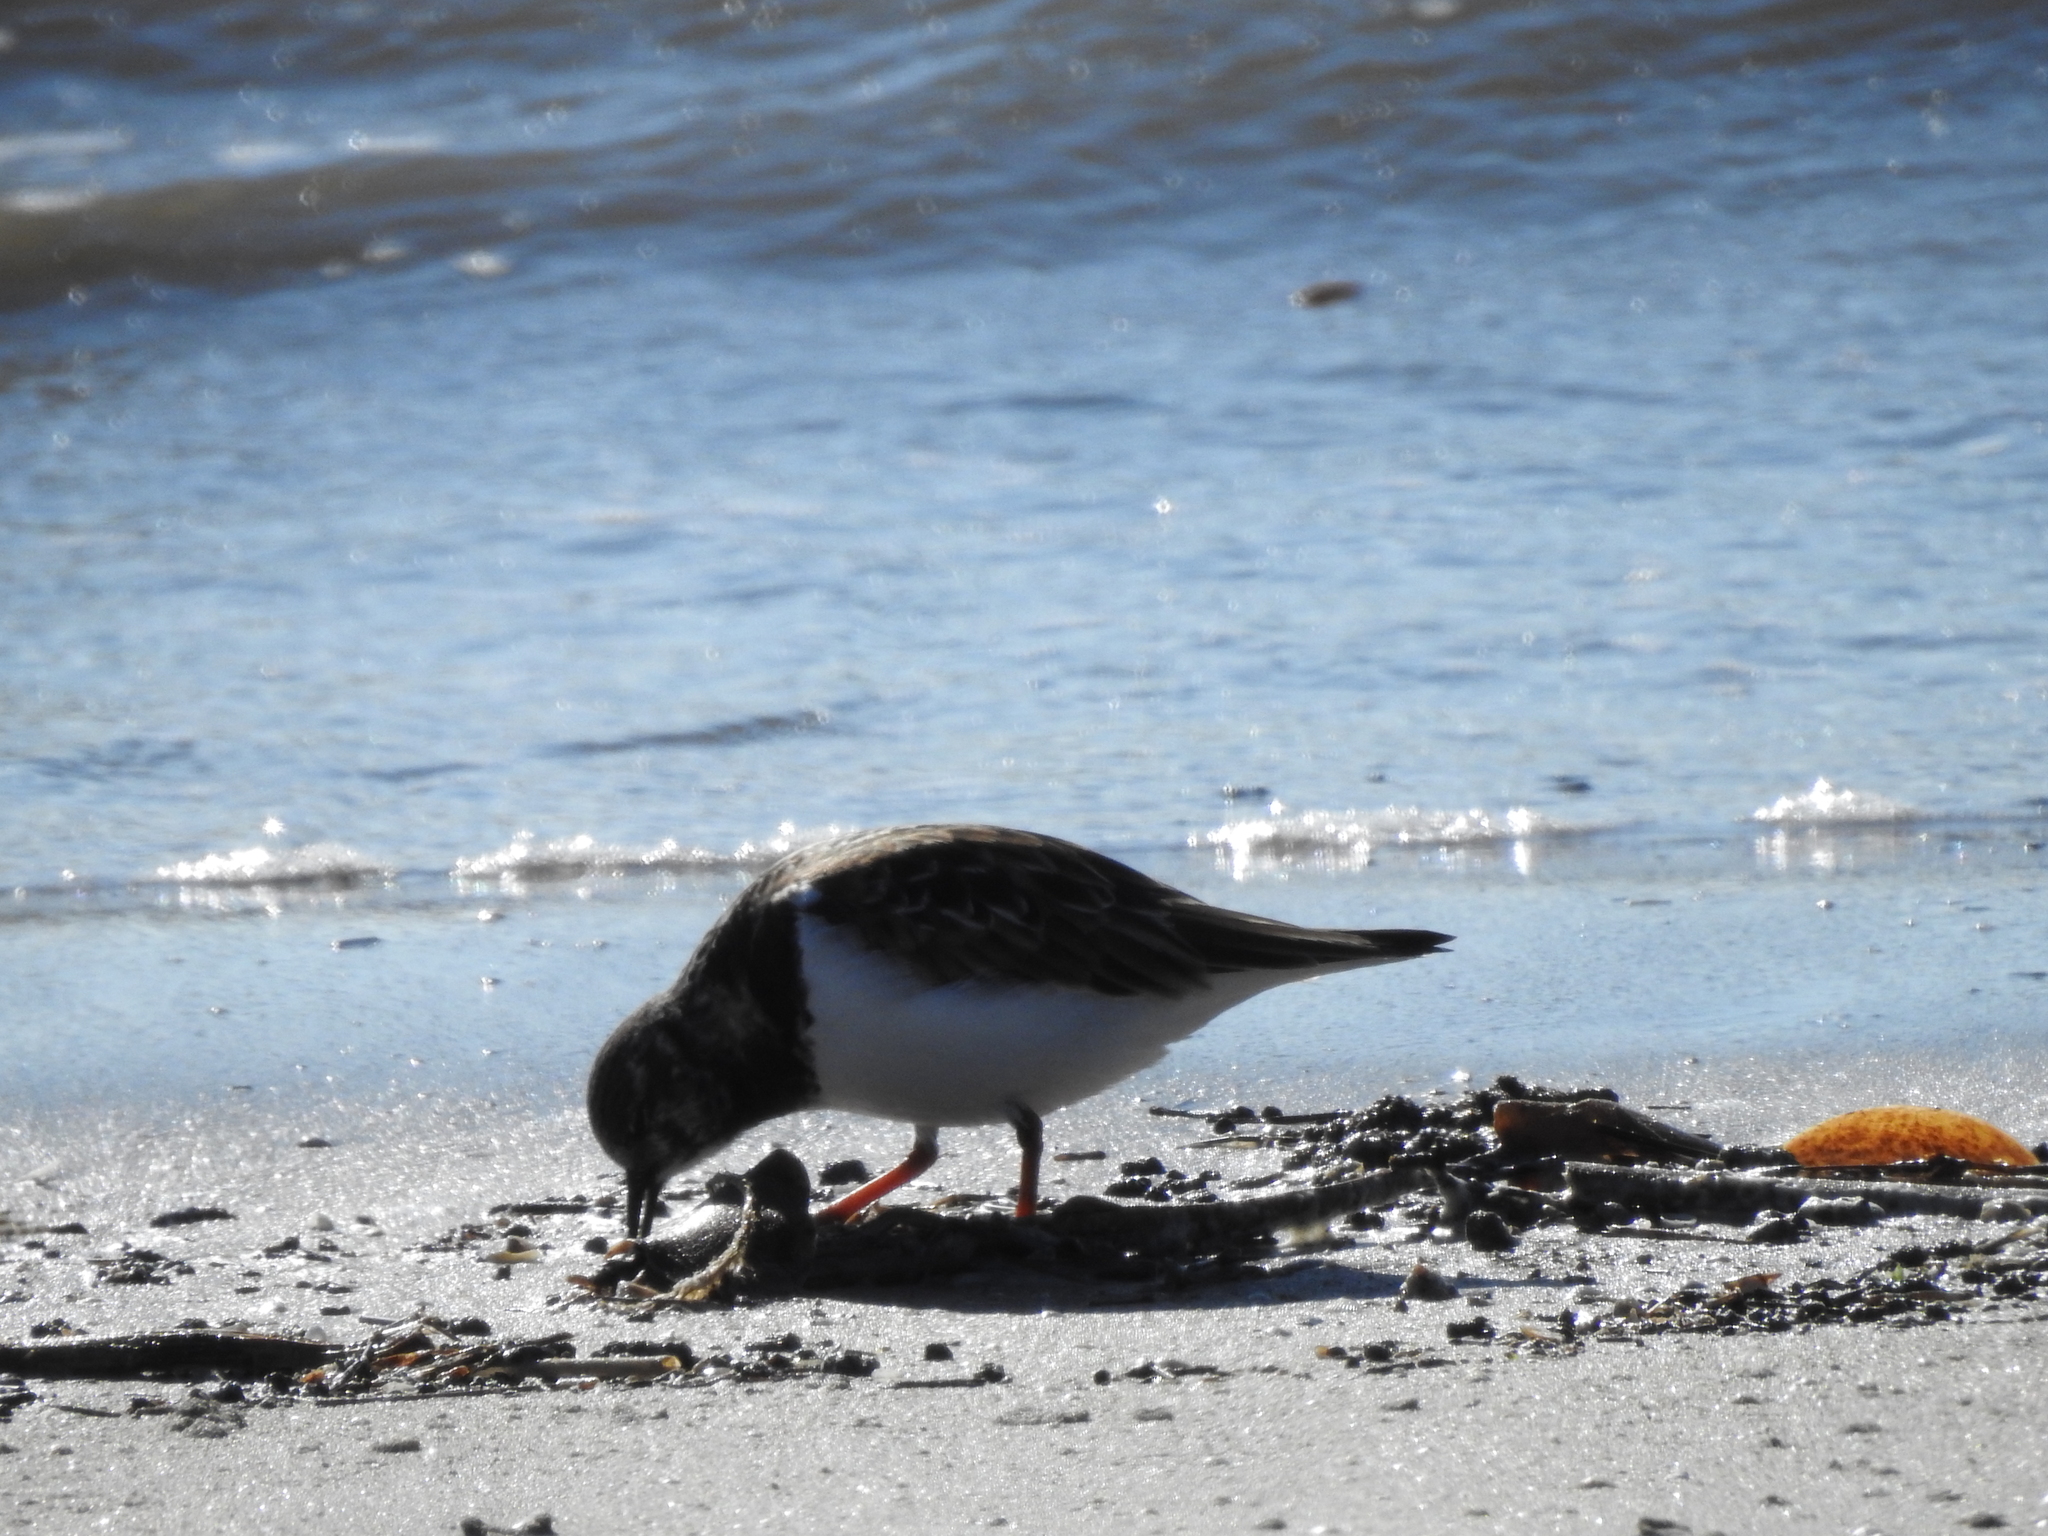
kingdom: Animalia
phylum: Chordata
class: Aves
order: Charadriiformes
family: Scolopacidae
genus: Arenaria
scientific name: Arenaria interpres
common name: Ruddy turnstone
